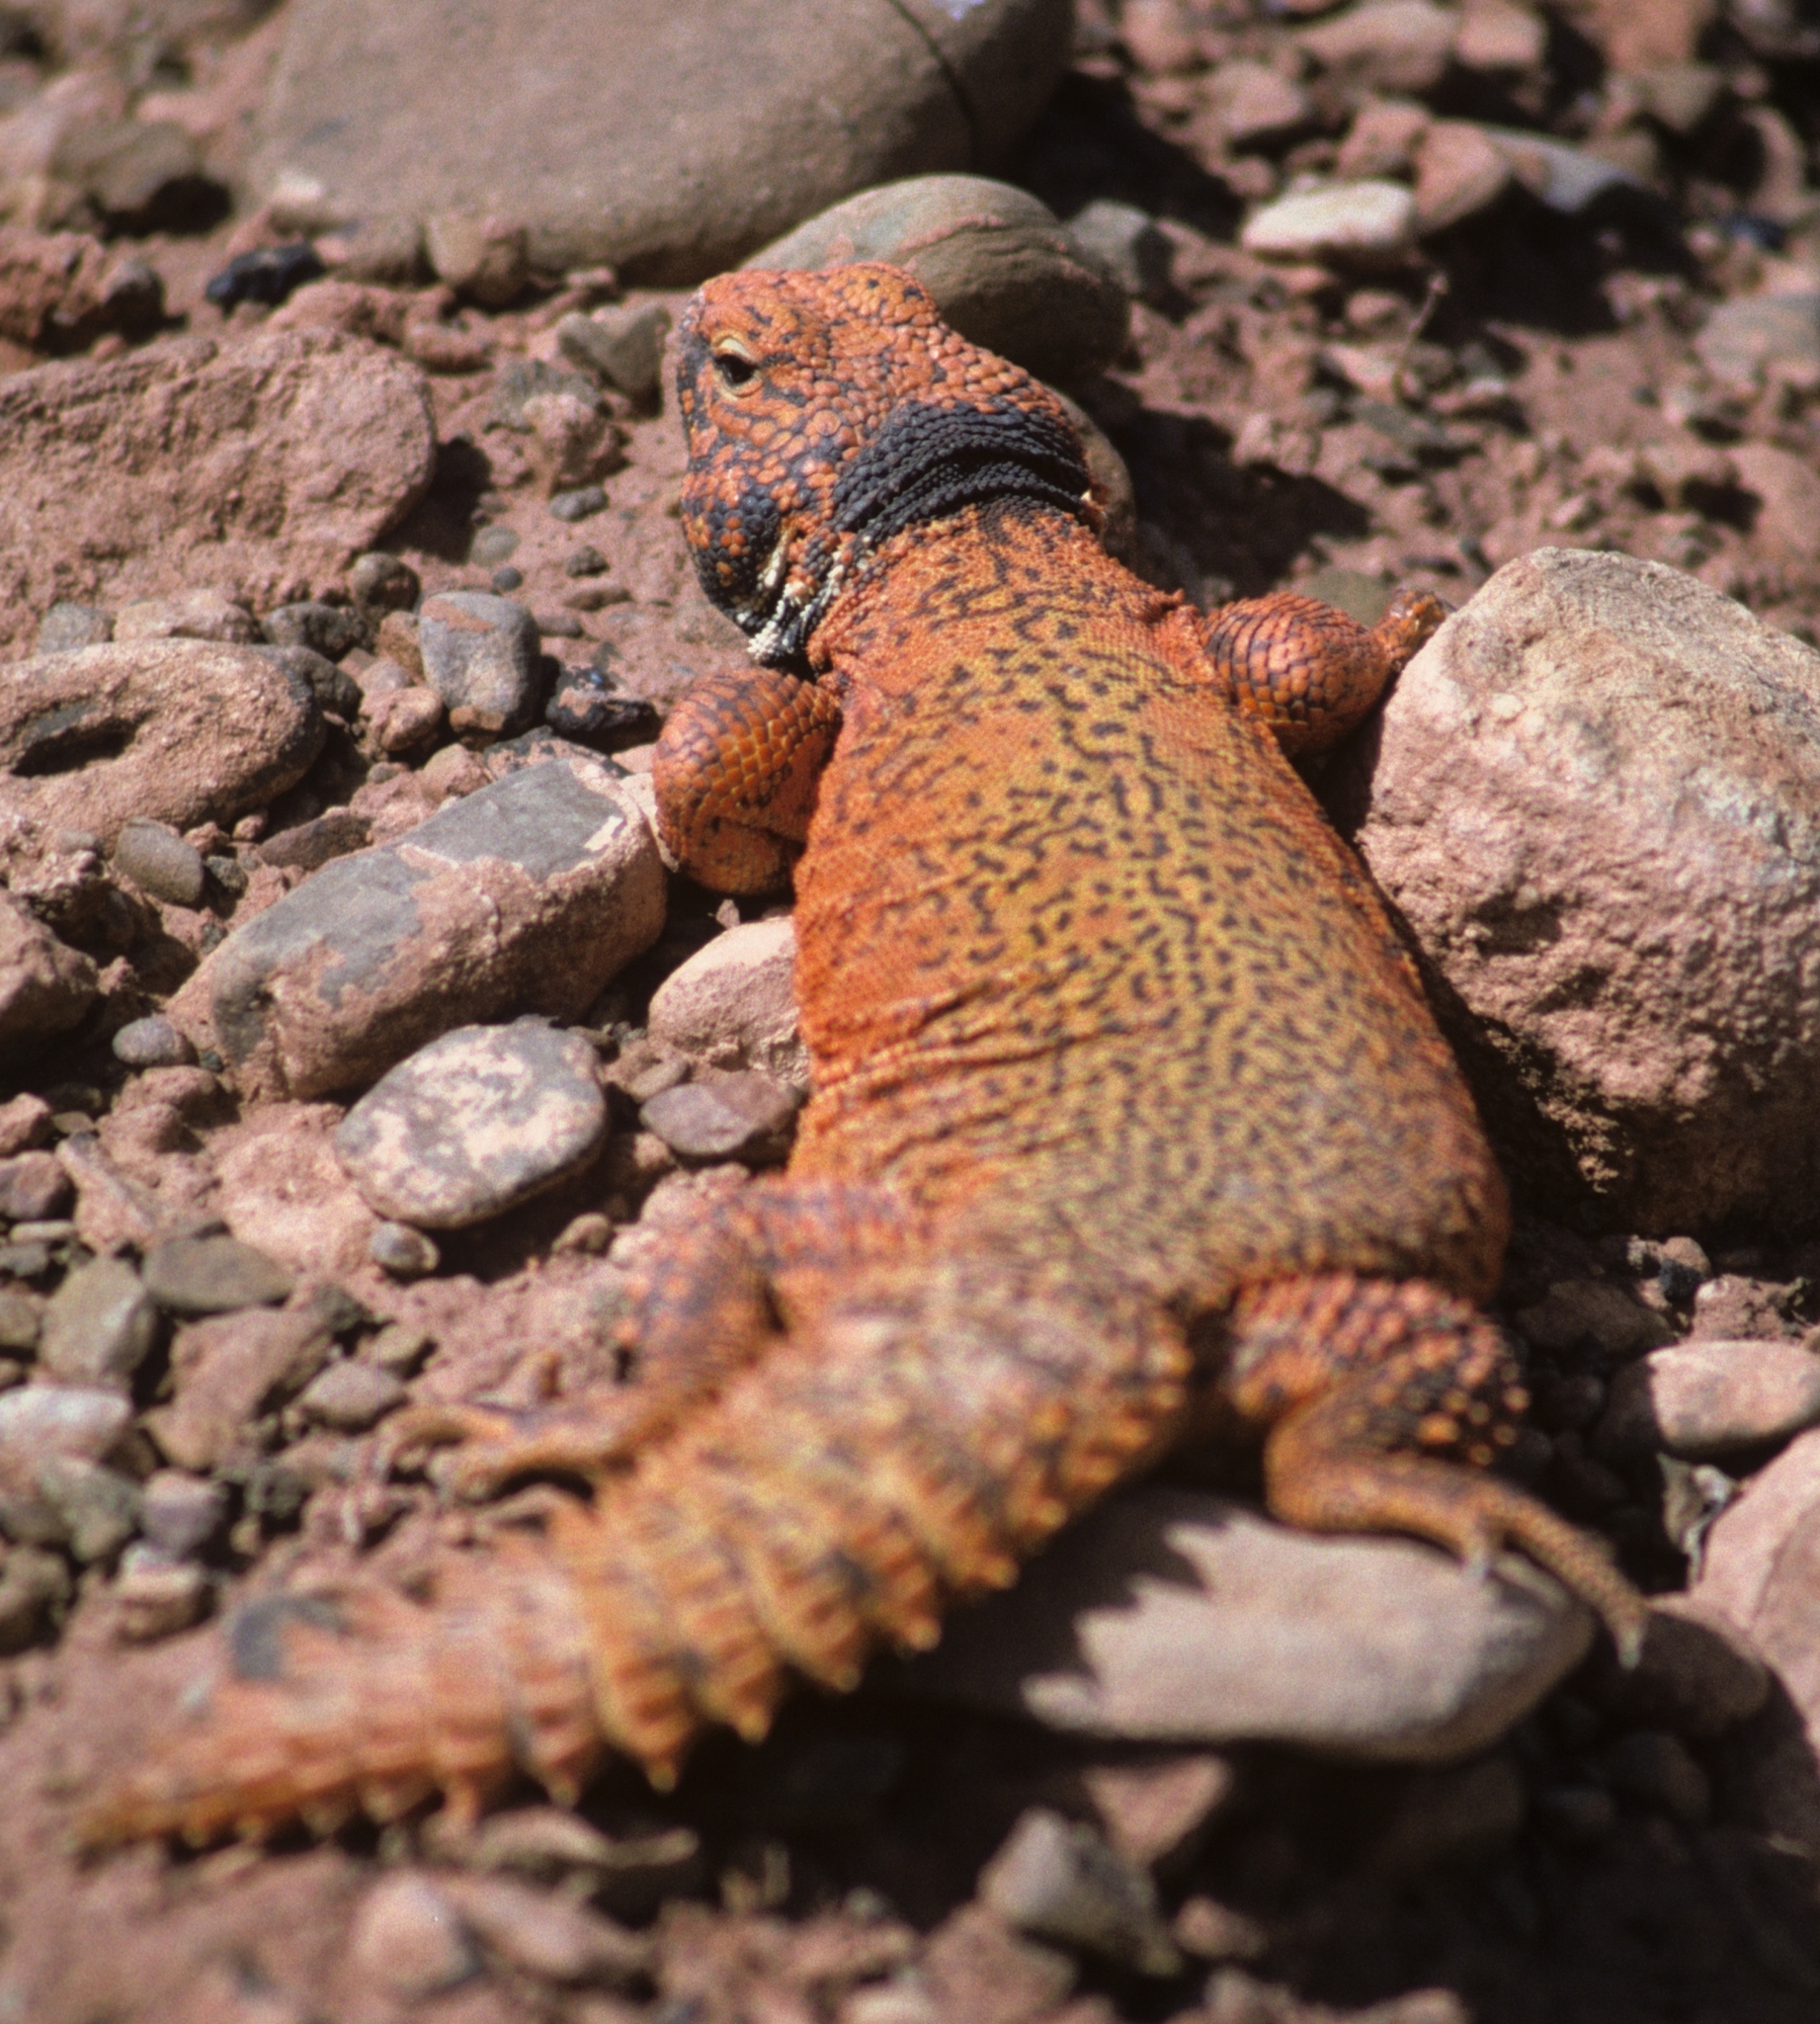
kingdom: Animalia
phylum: Chordata
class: Squamata
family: Agamidae
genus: Uromastyx
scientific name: Uromastyx nigriventris
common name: Moroccan spiny-tailed lizard
